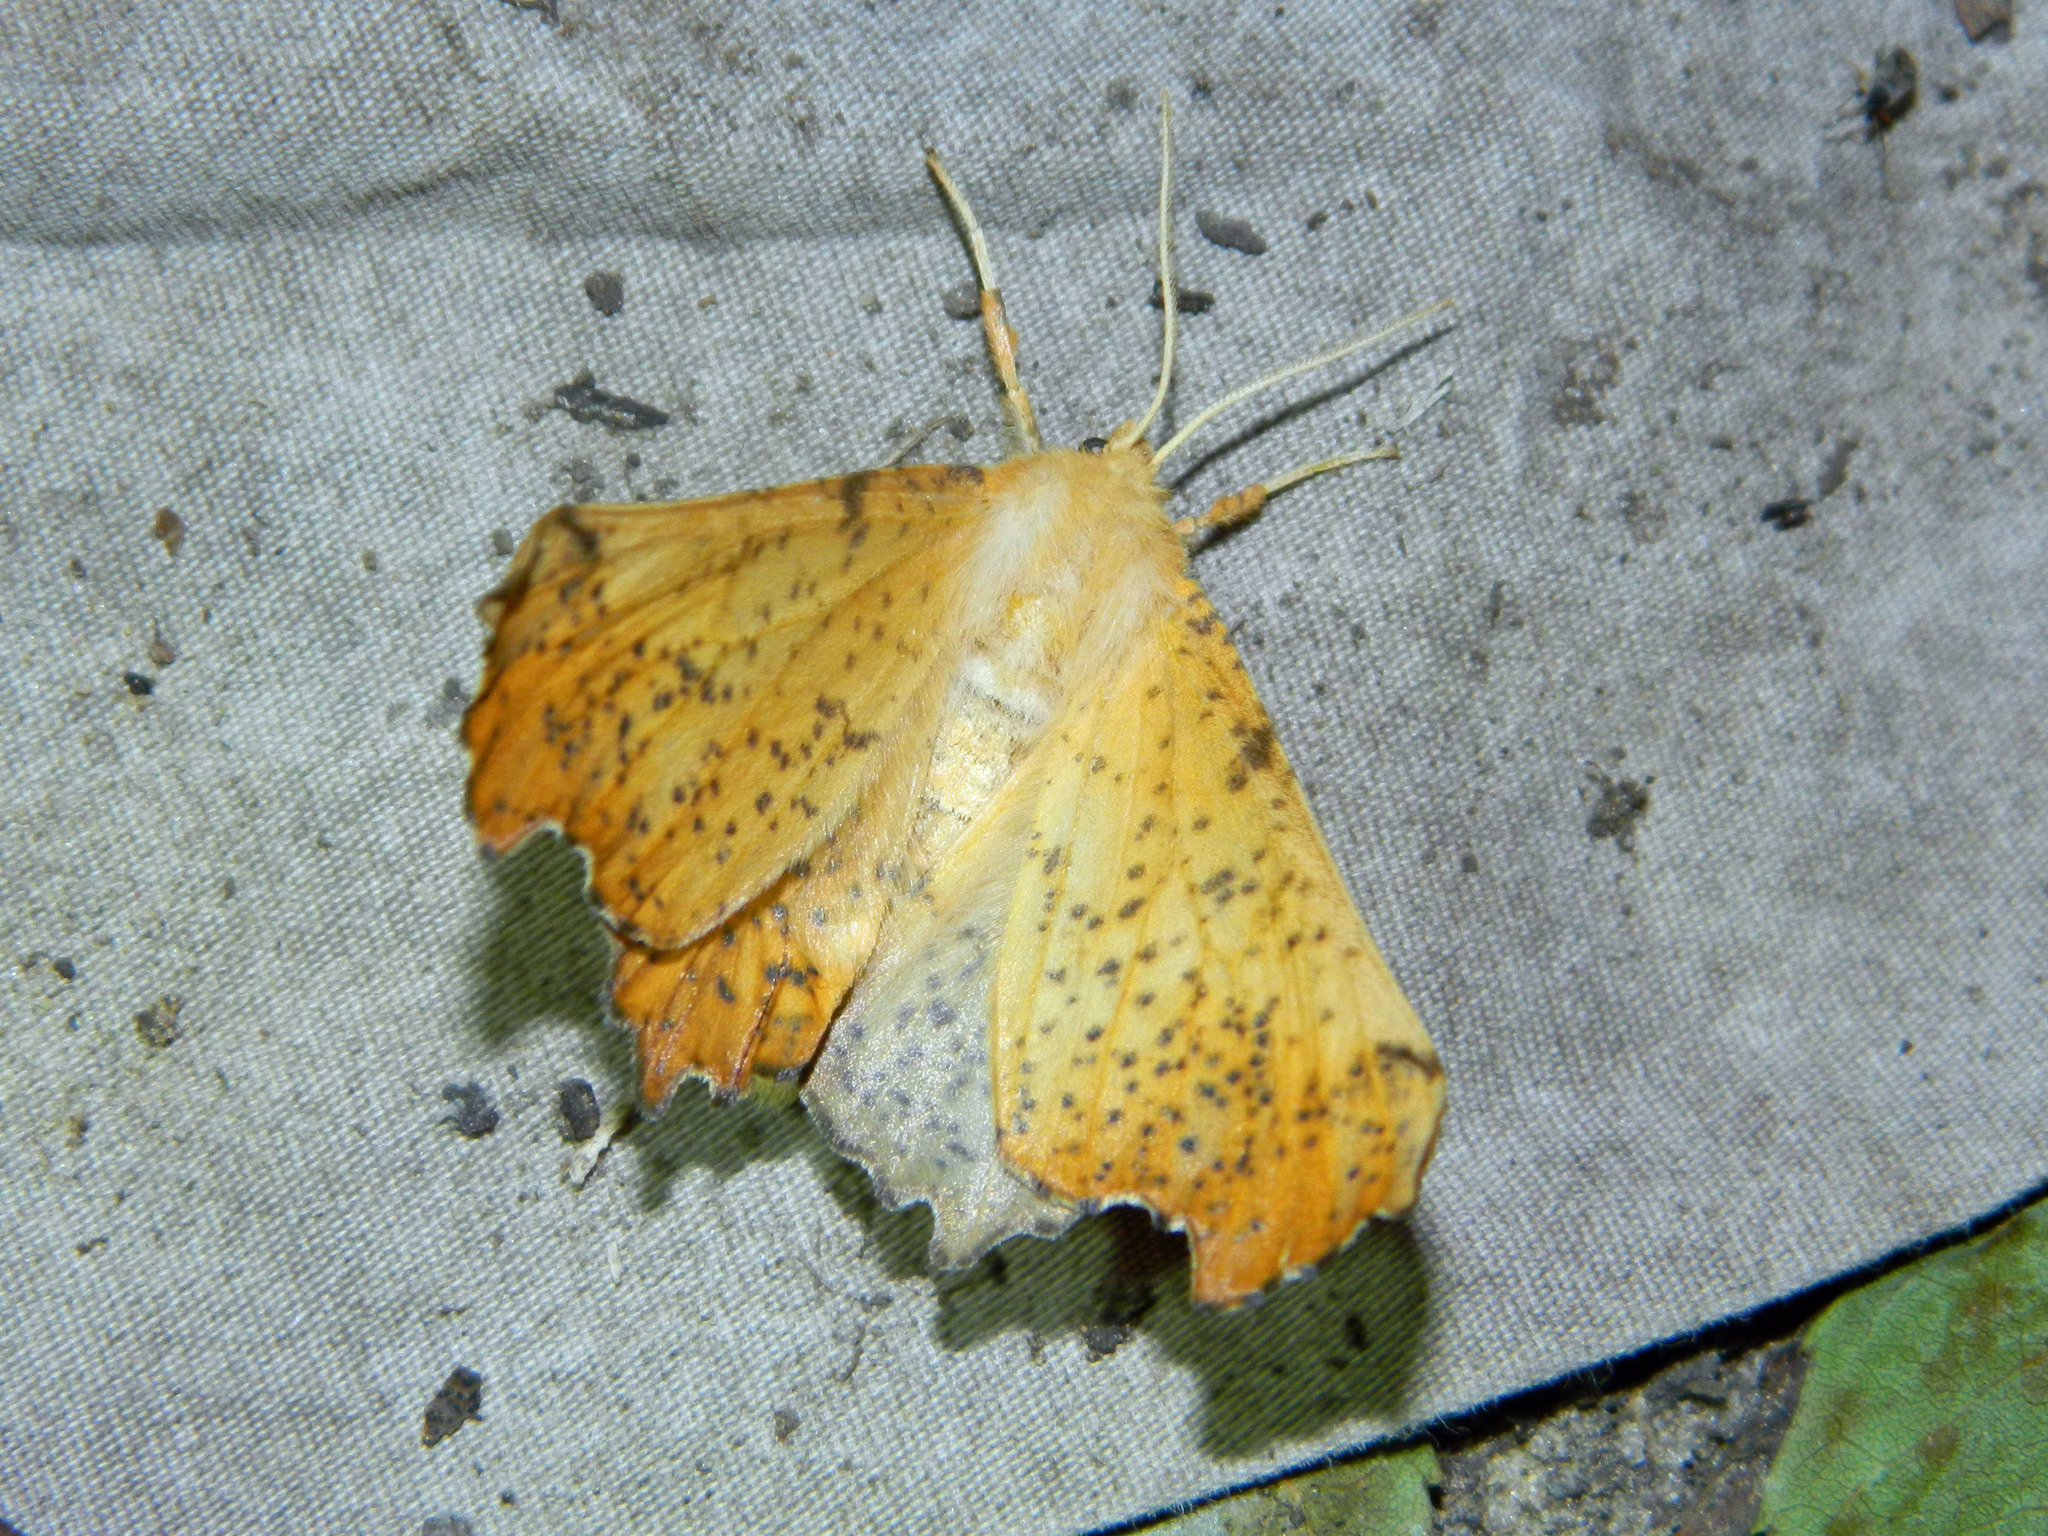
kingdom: Animalia
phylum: Arthropoda
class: Insecta
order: Lepidoptera
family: Geometridae
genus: Ennomos
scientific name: Ennomos magnaria
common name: Maple spanworm
